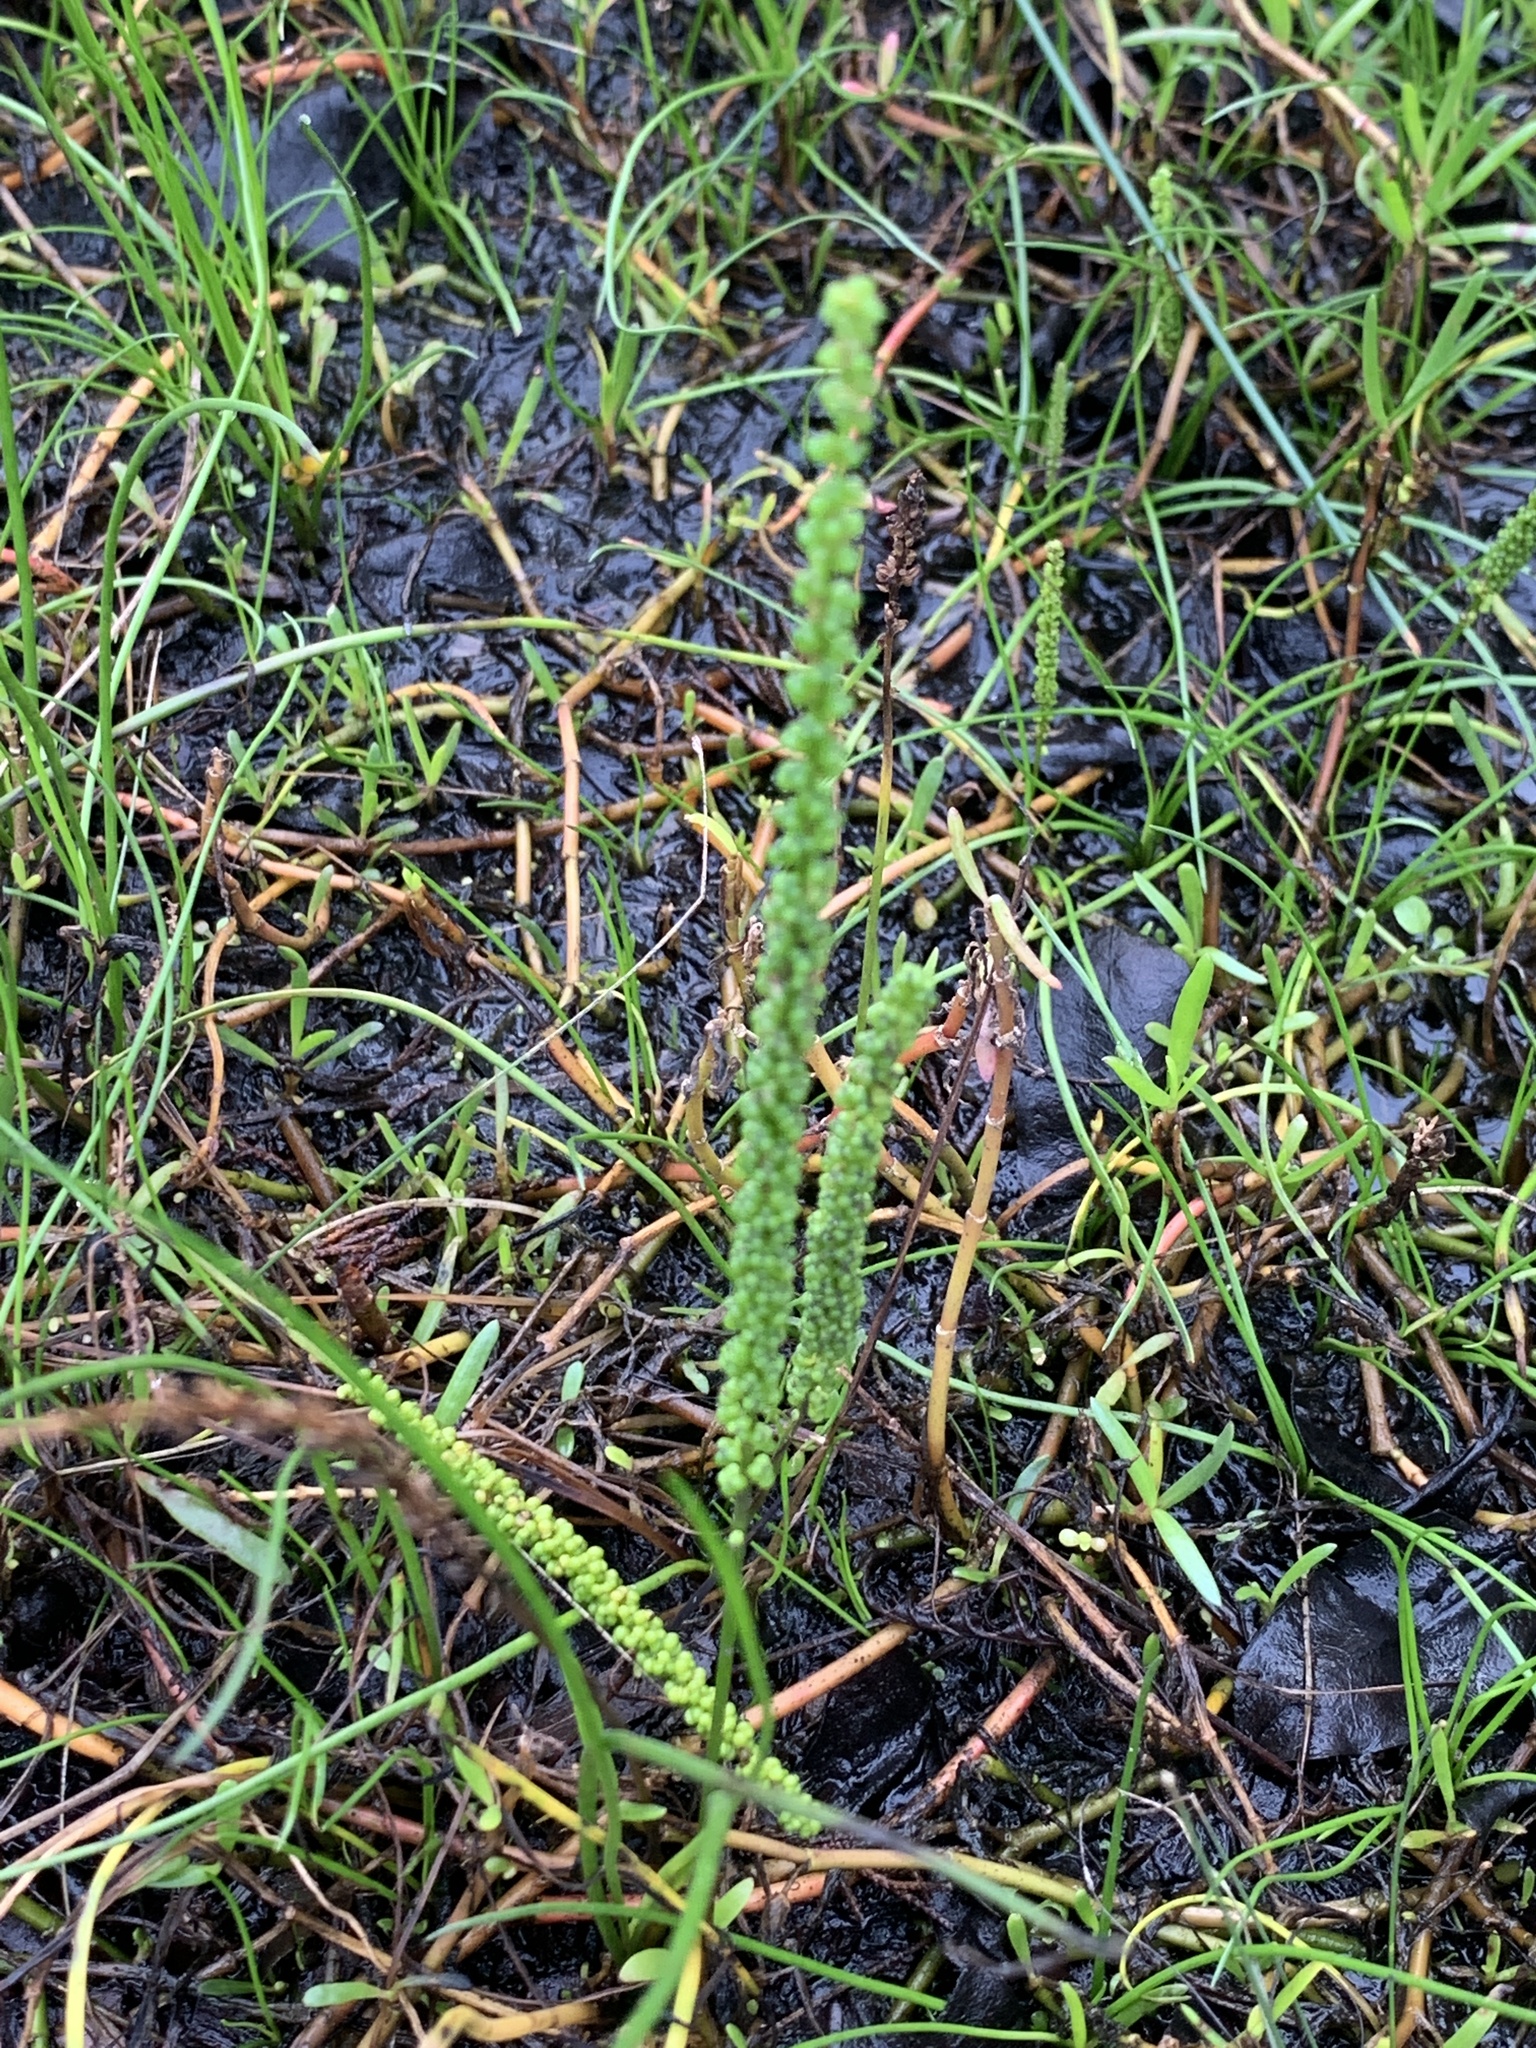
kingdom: Plantae
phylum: Tracheophyta
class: Liliopsida
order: Alismatales
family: Juncaginaceae
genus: Triglochin
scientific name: Triglochin striata
